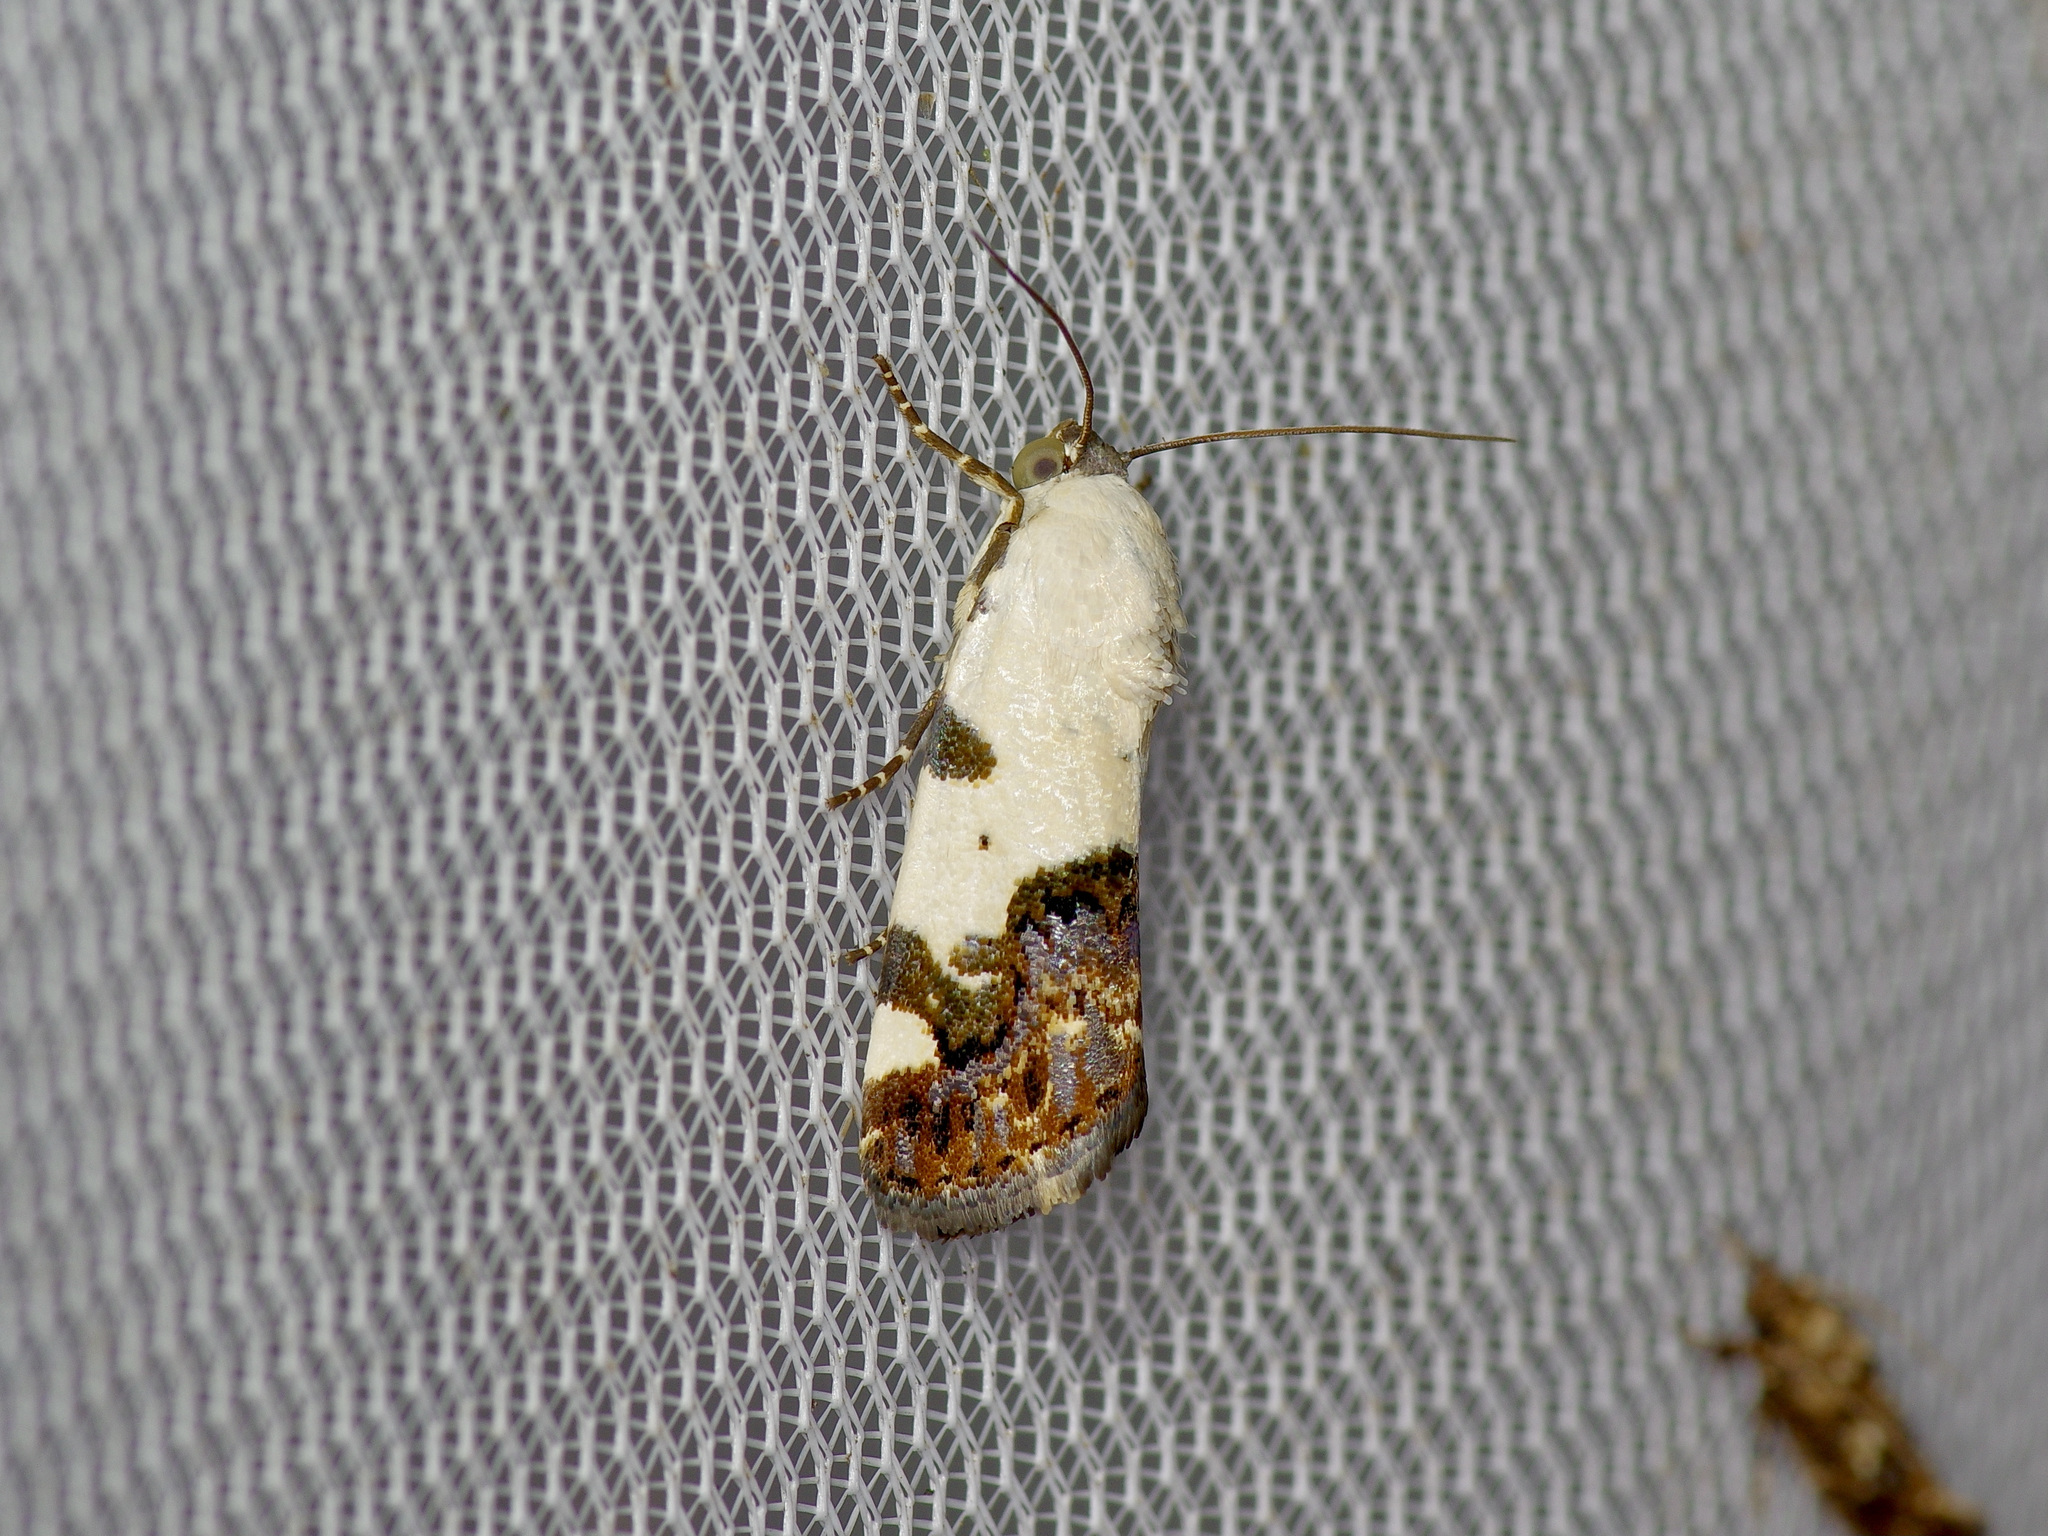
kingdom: Animalia
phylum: Arthropoda
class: Insecta
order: Lepidoptera
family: Noctuidae
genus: Acontia
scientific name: Acontia aprica
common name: Nun
